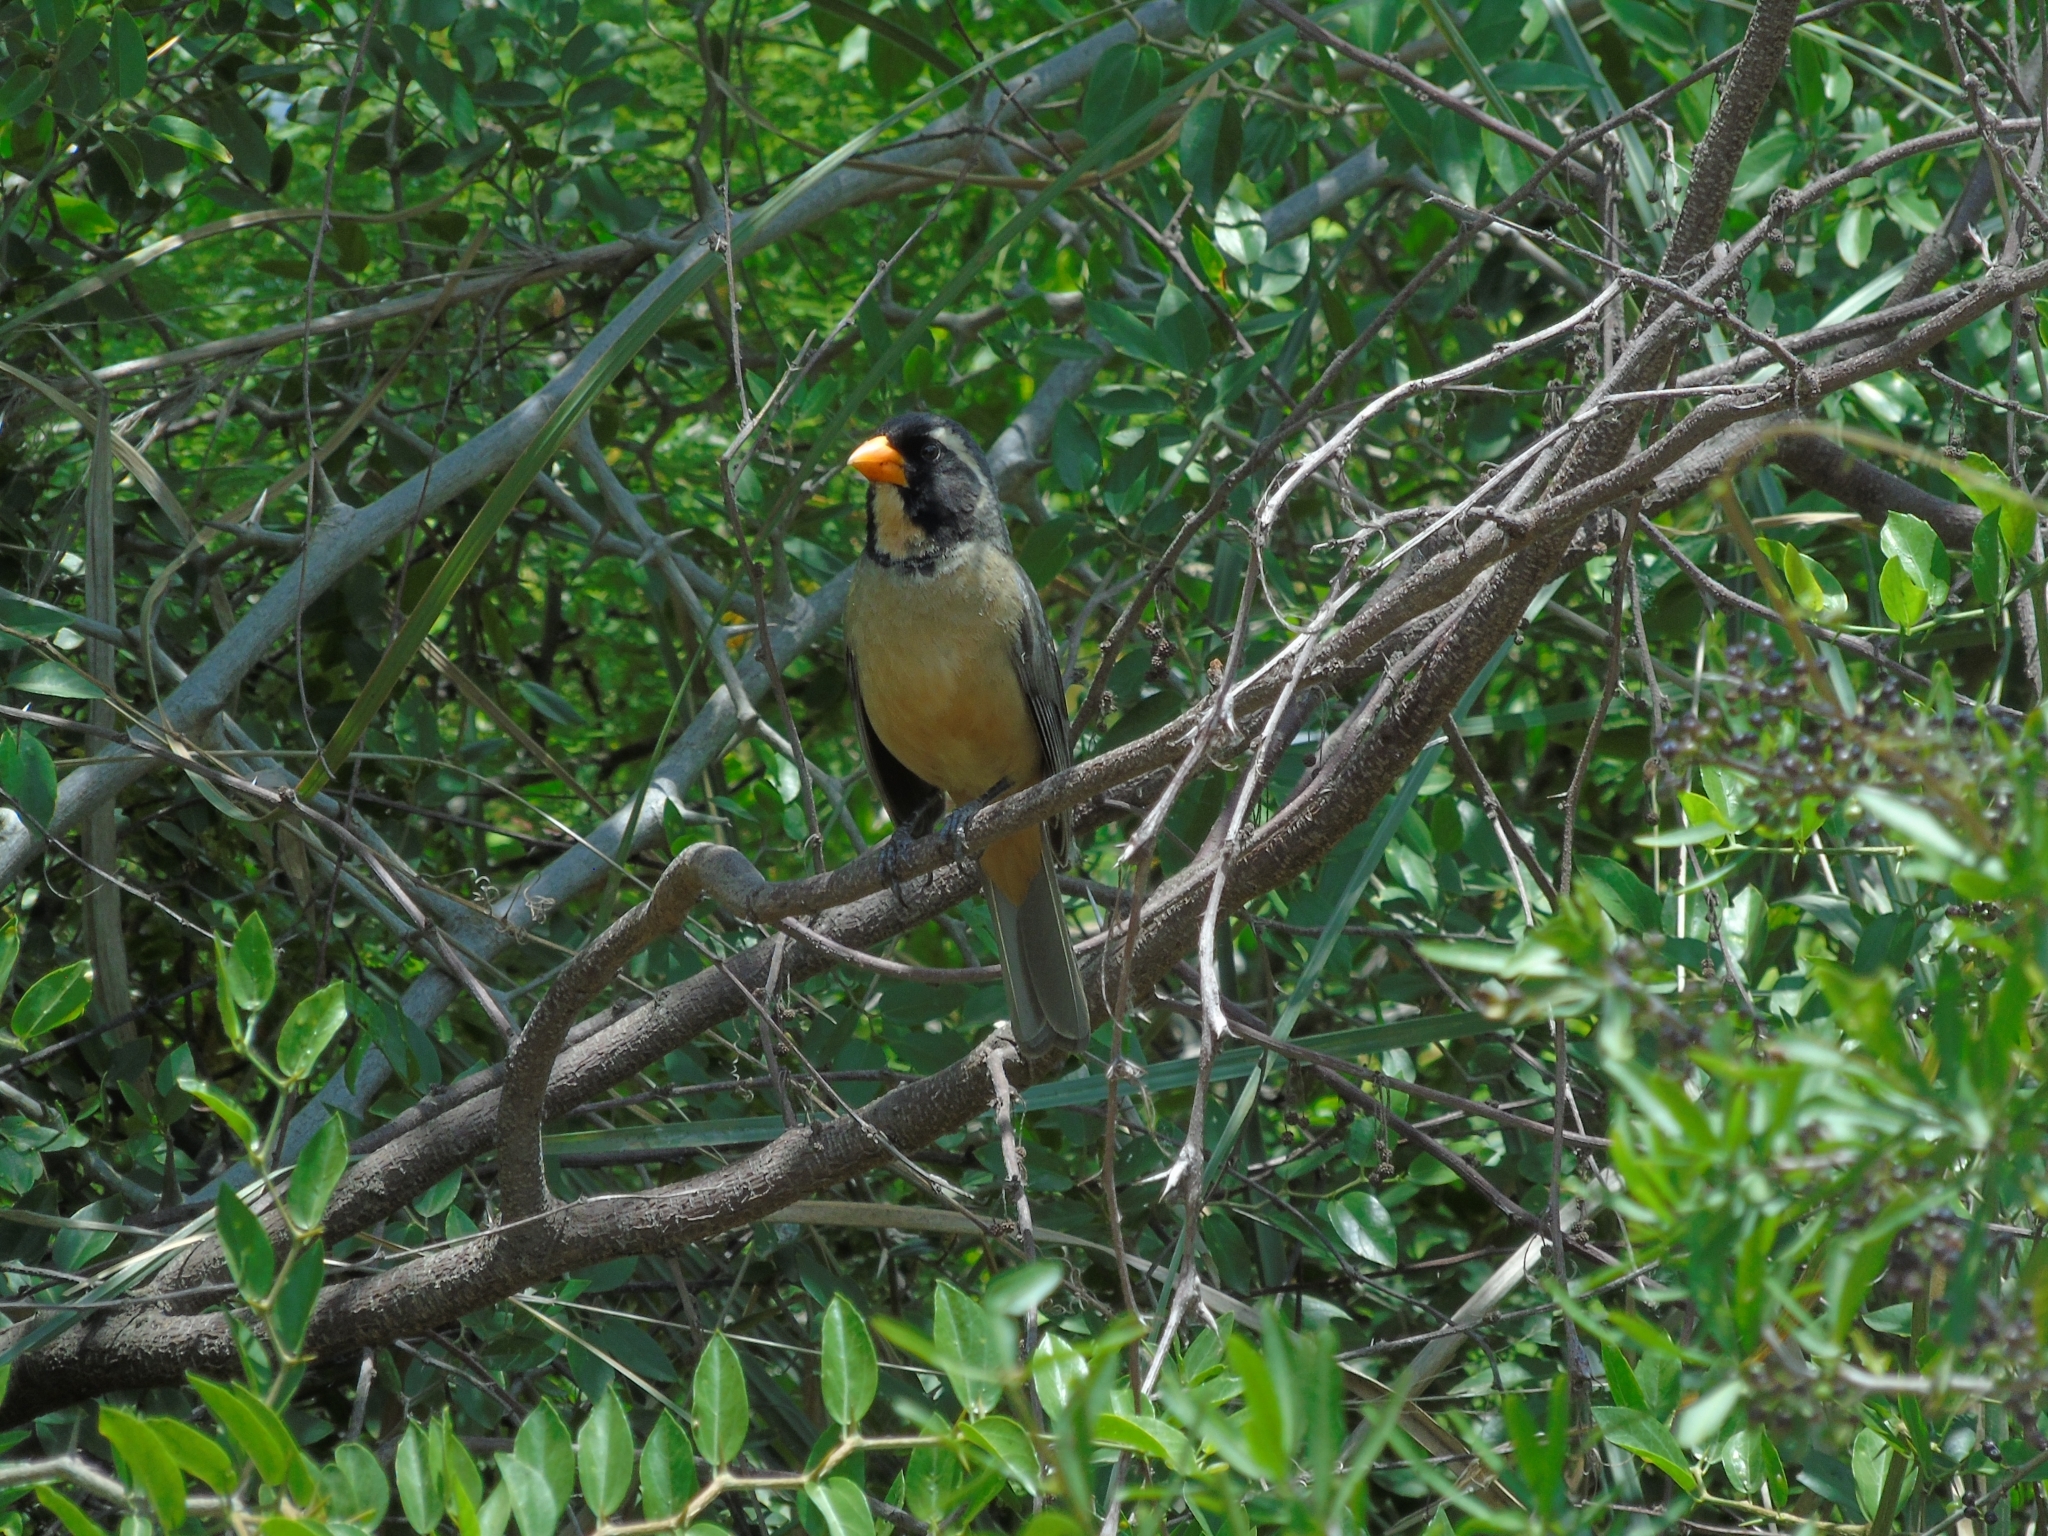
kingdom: Animalia
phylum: Chordata
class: Aves
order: Passeriformes
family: Thraupidae
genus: Saltator
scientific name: Saltator aurantiirostris
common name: Golden-billed saltator
